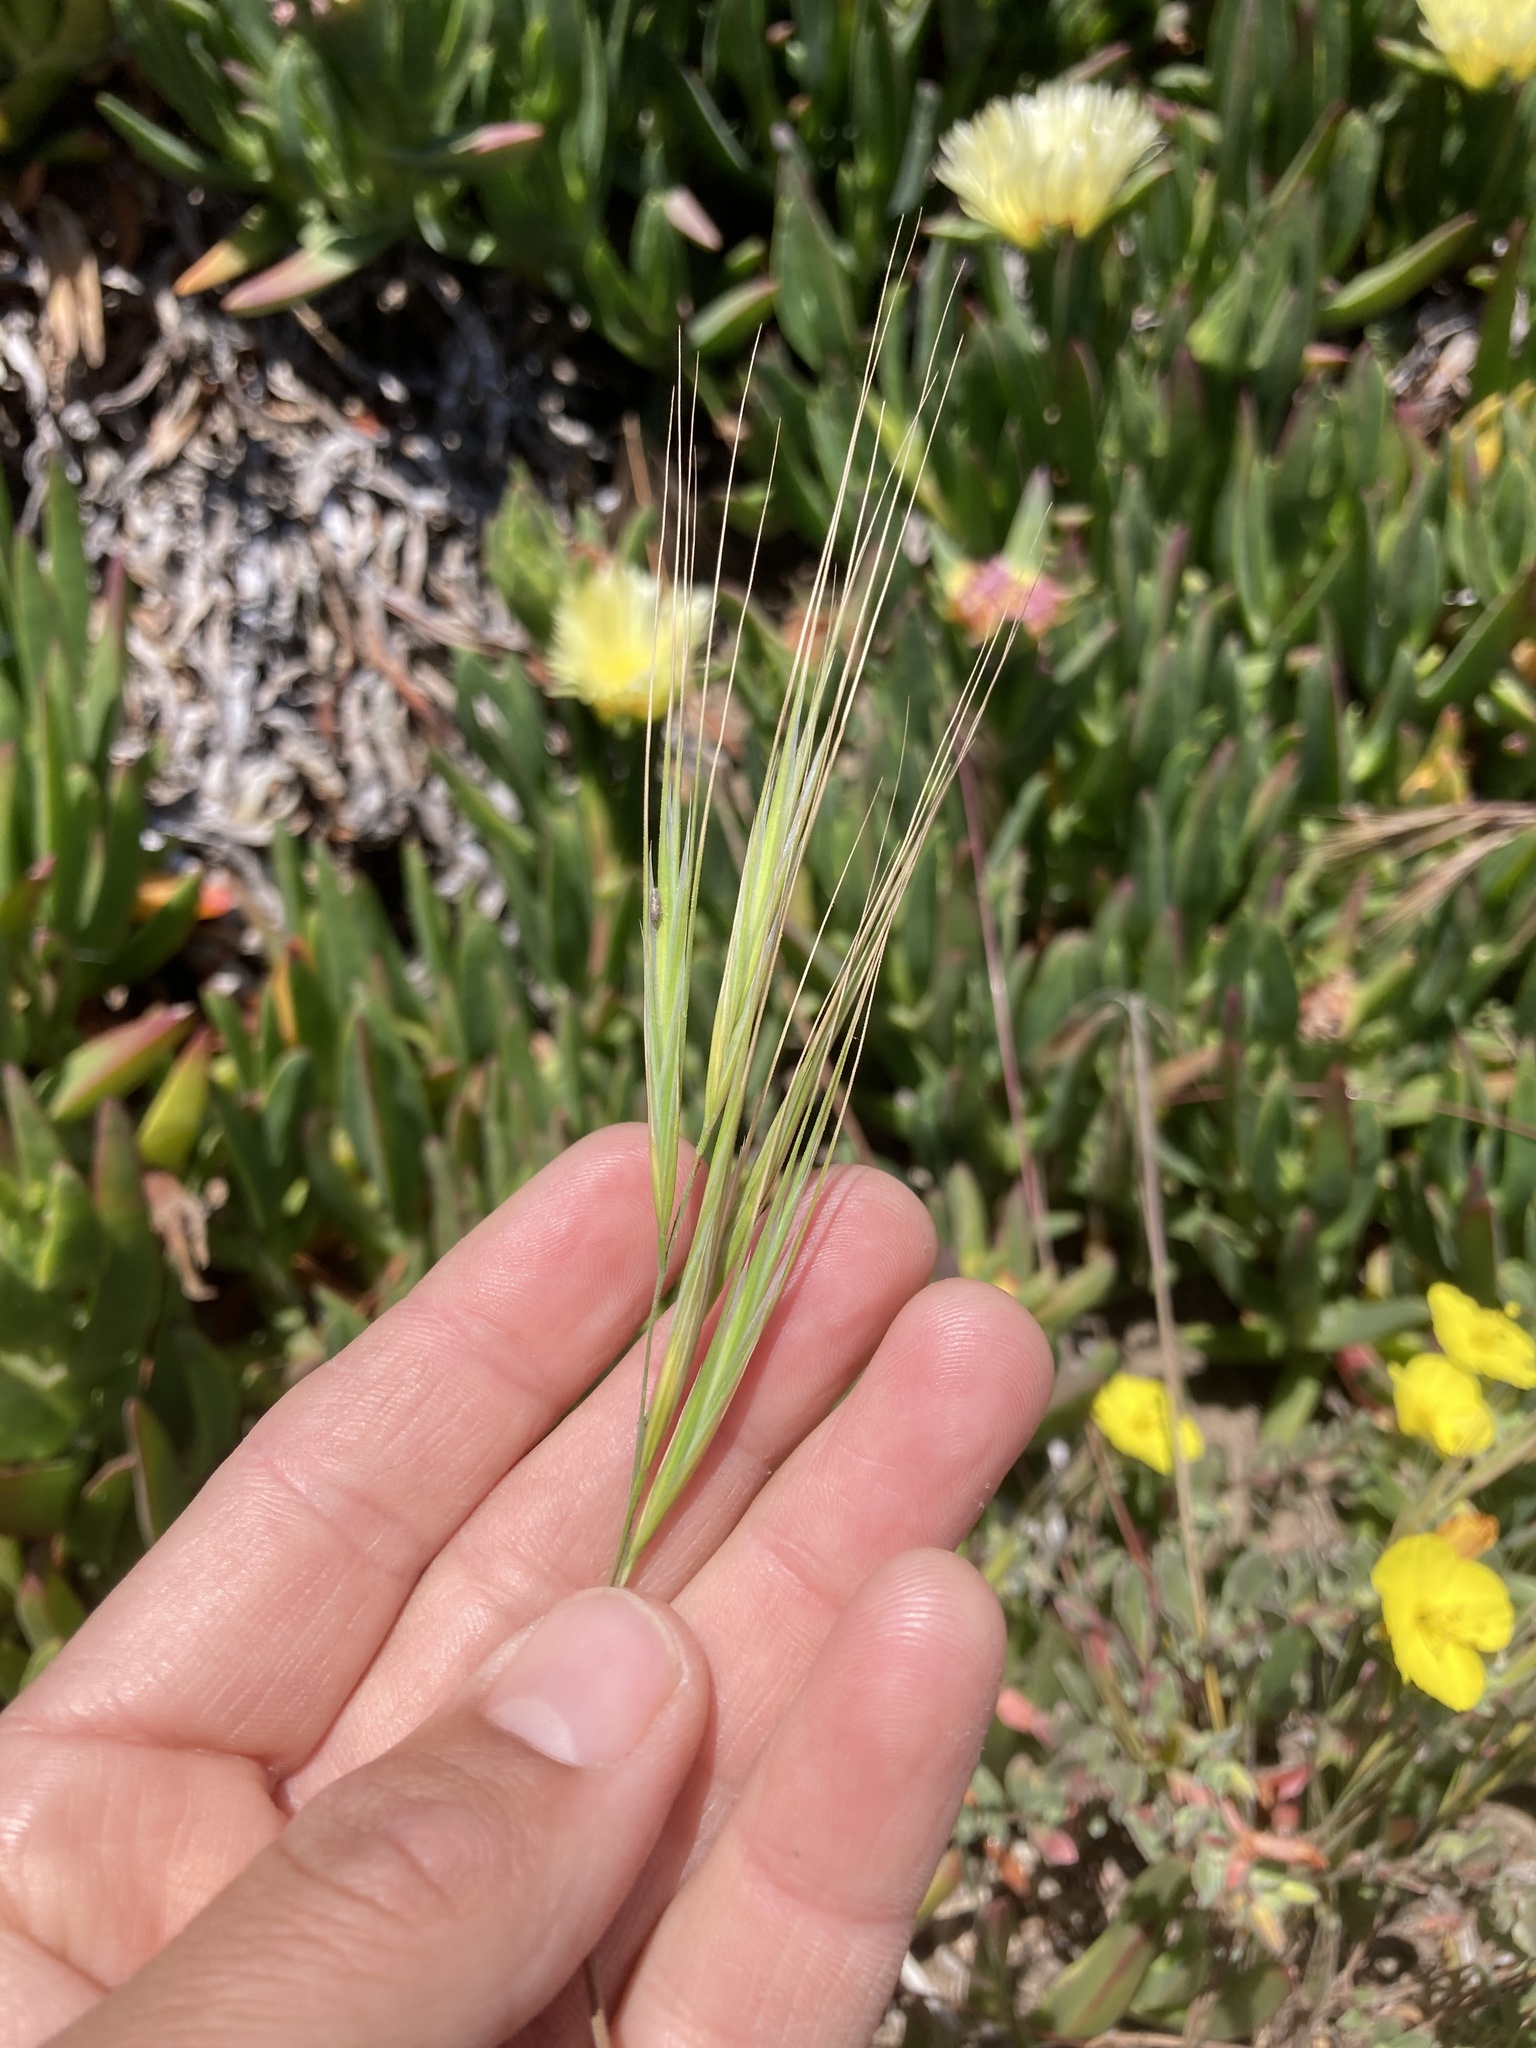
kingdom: Plantae
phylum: Tracheophyta
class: Liliopsida
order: Poales
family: Poaceae
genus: Bromus
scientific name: Bromus diandrus
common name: Ripgut brome
